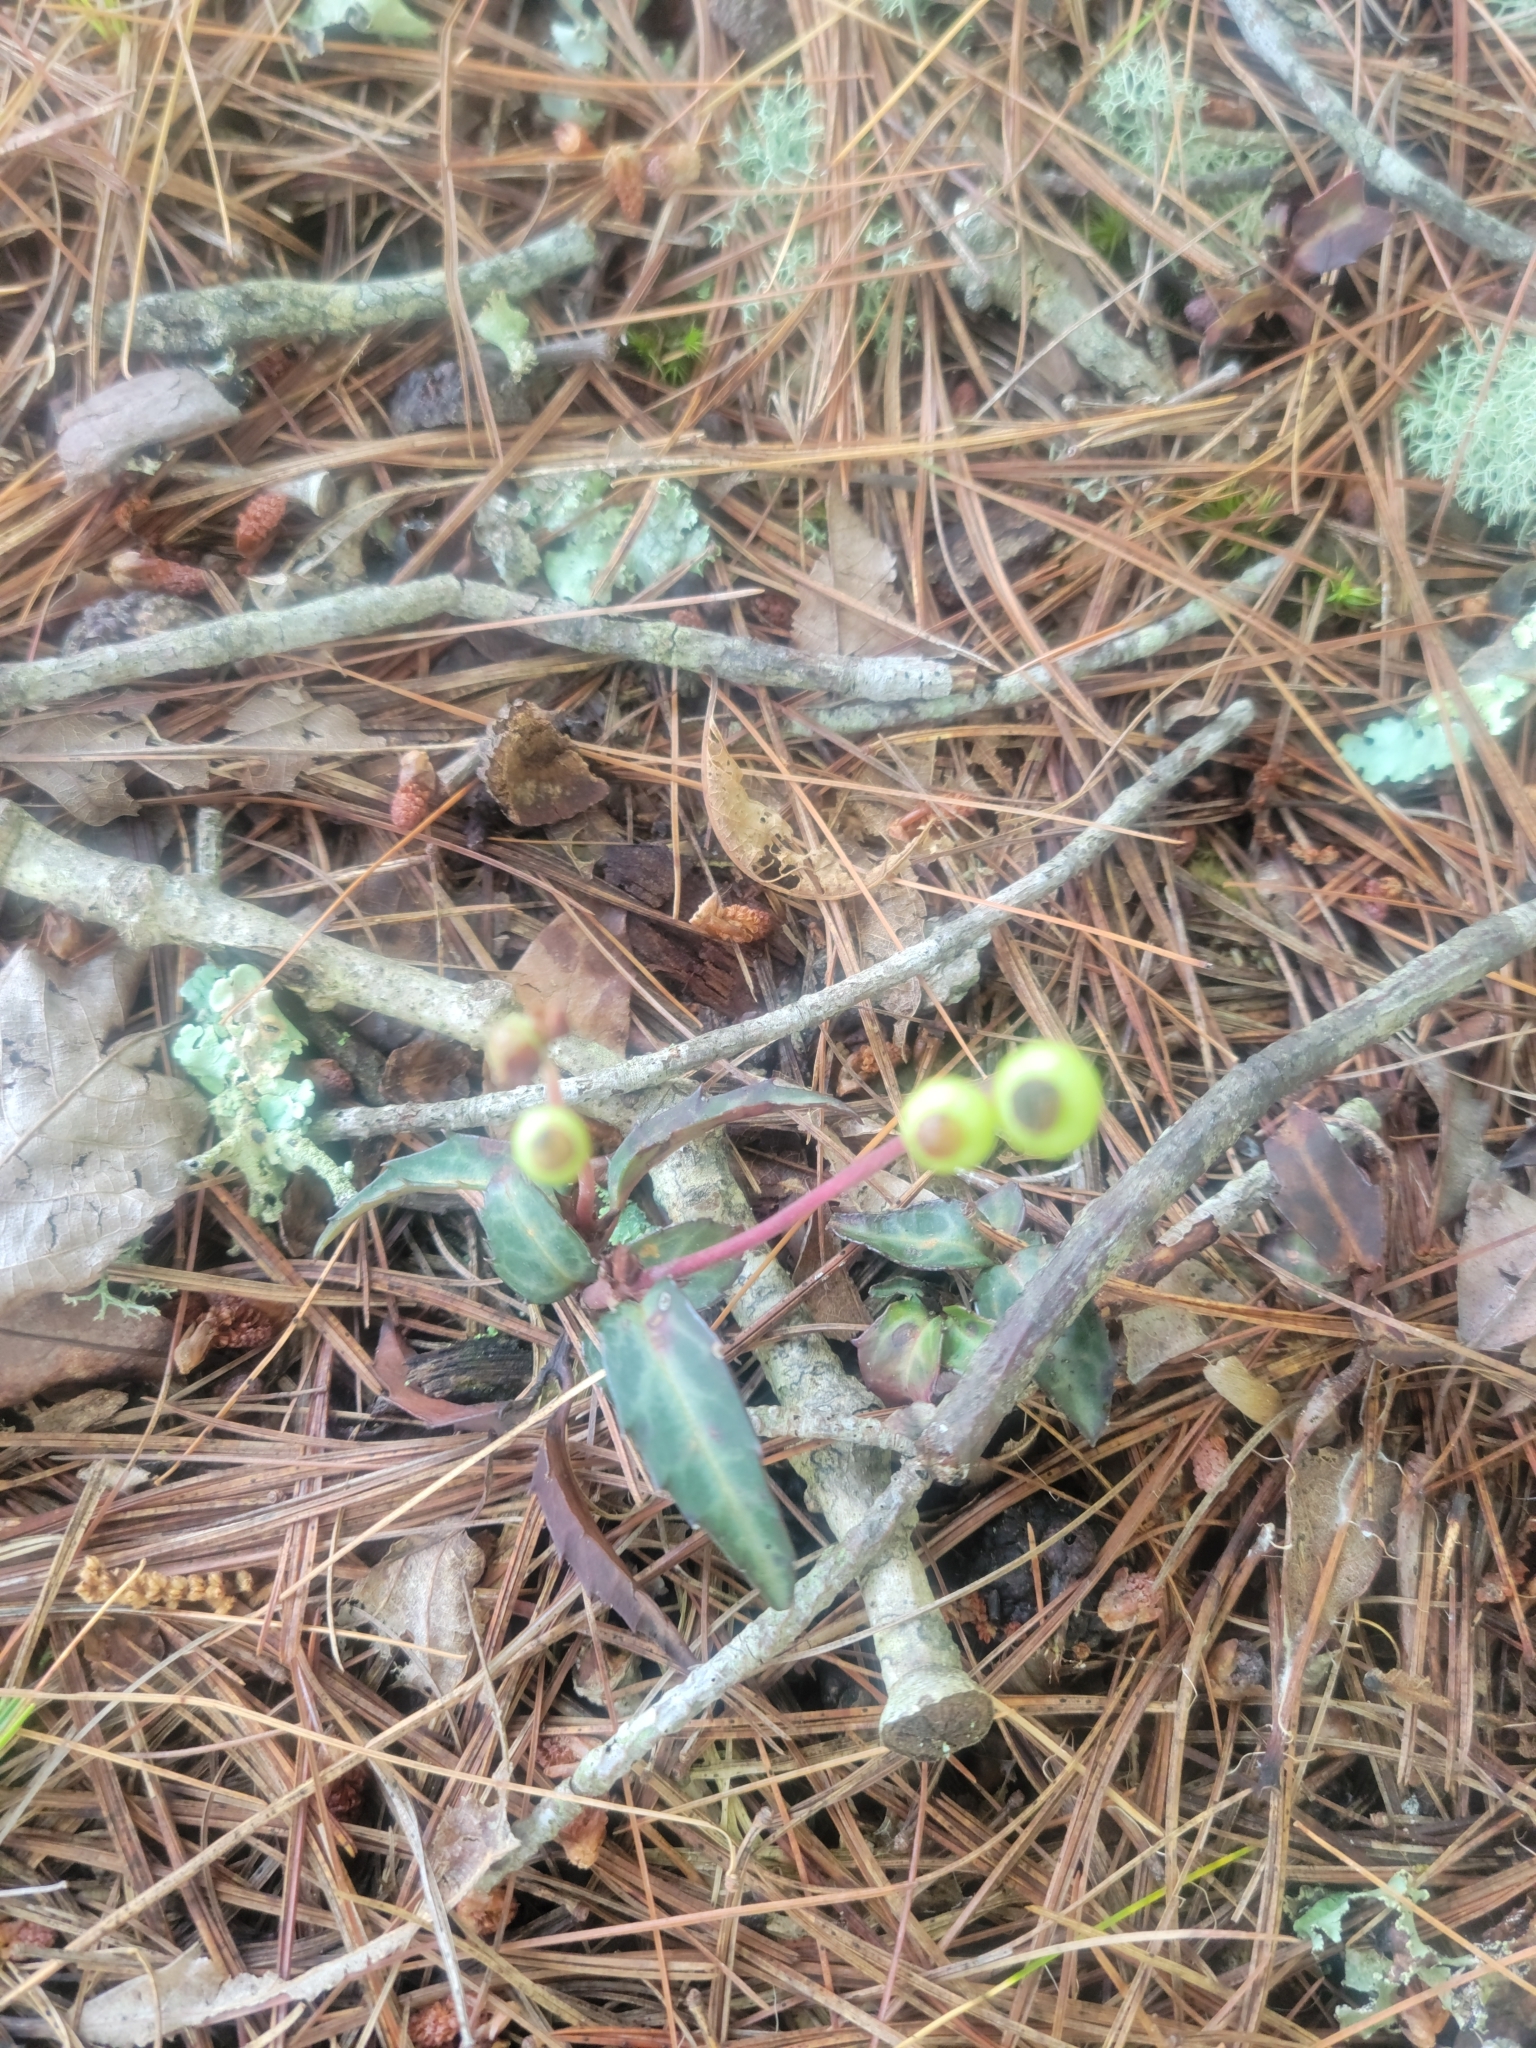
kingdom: Plantae
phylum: Tracheophyta
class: Magnoliopsida
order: Ericales
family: Ericaceae
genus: Chimaphila
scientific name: Chimaphila maculata
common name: Spotted pipsissewa
